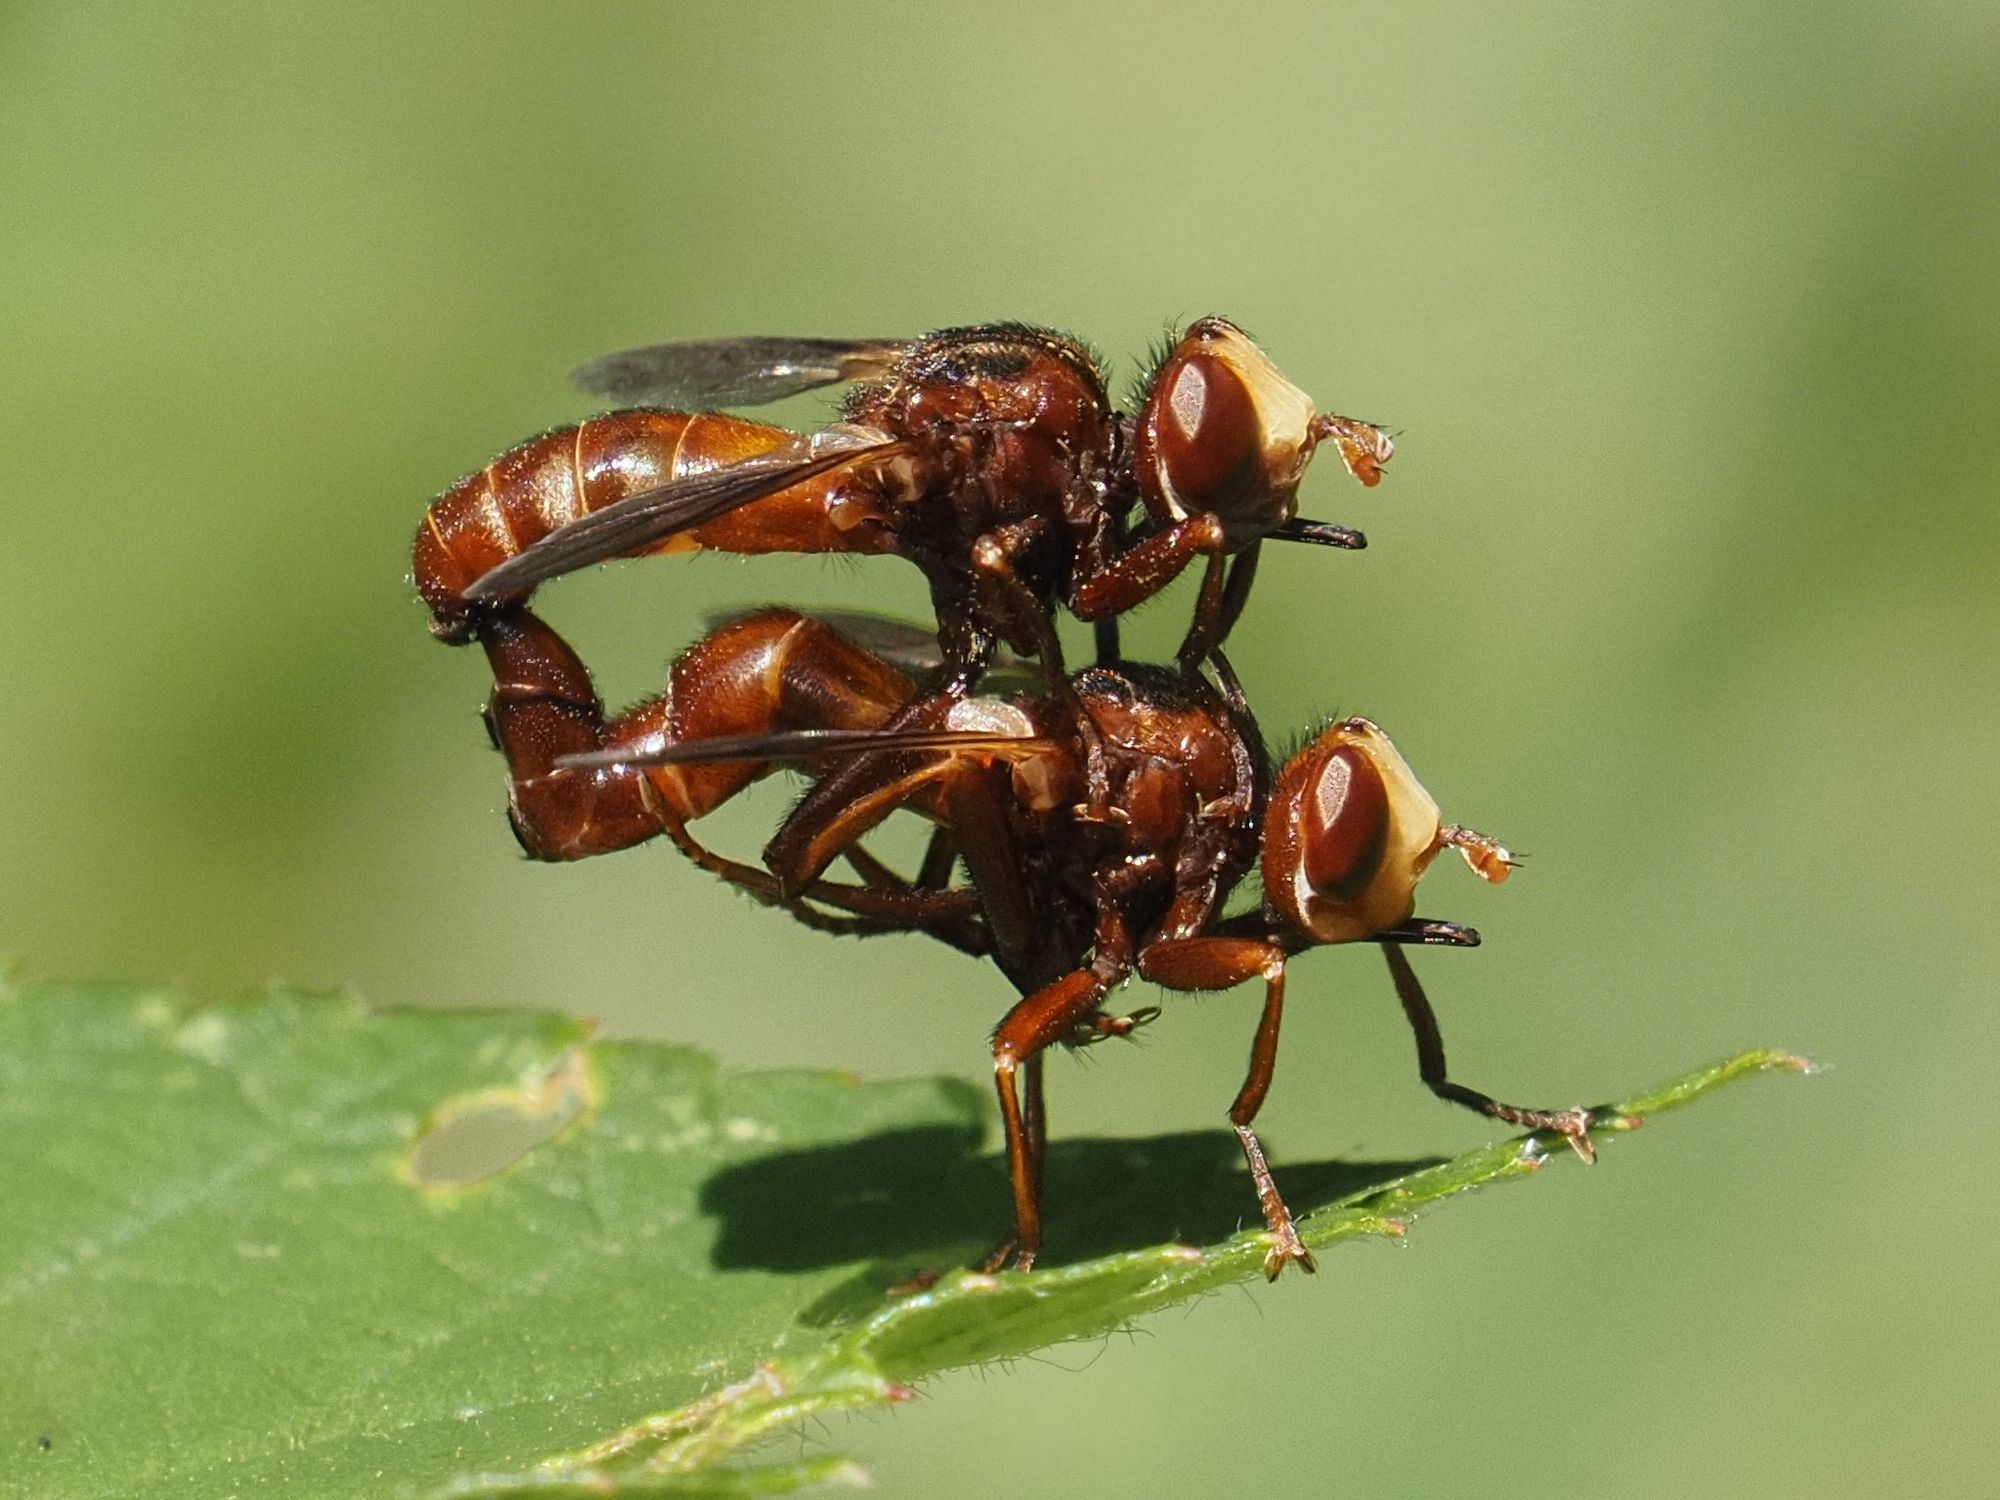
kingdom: Animalia
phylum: Arthropoda
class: Insecta
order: Diptera
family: Conopidae
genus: Sicus
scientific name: Sicus ferrugineus
